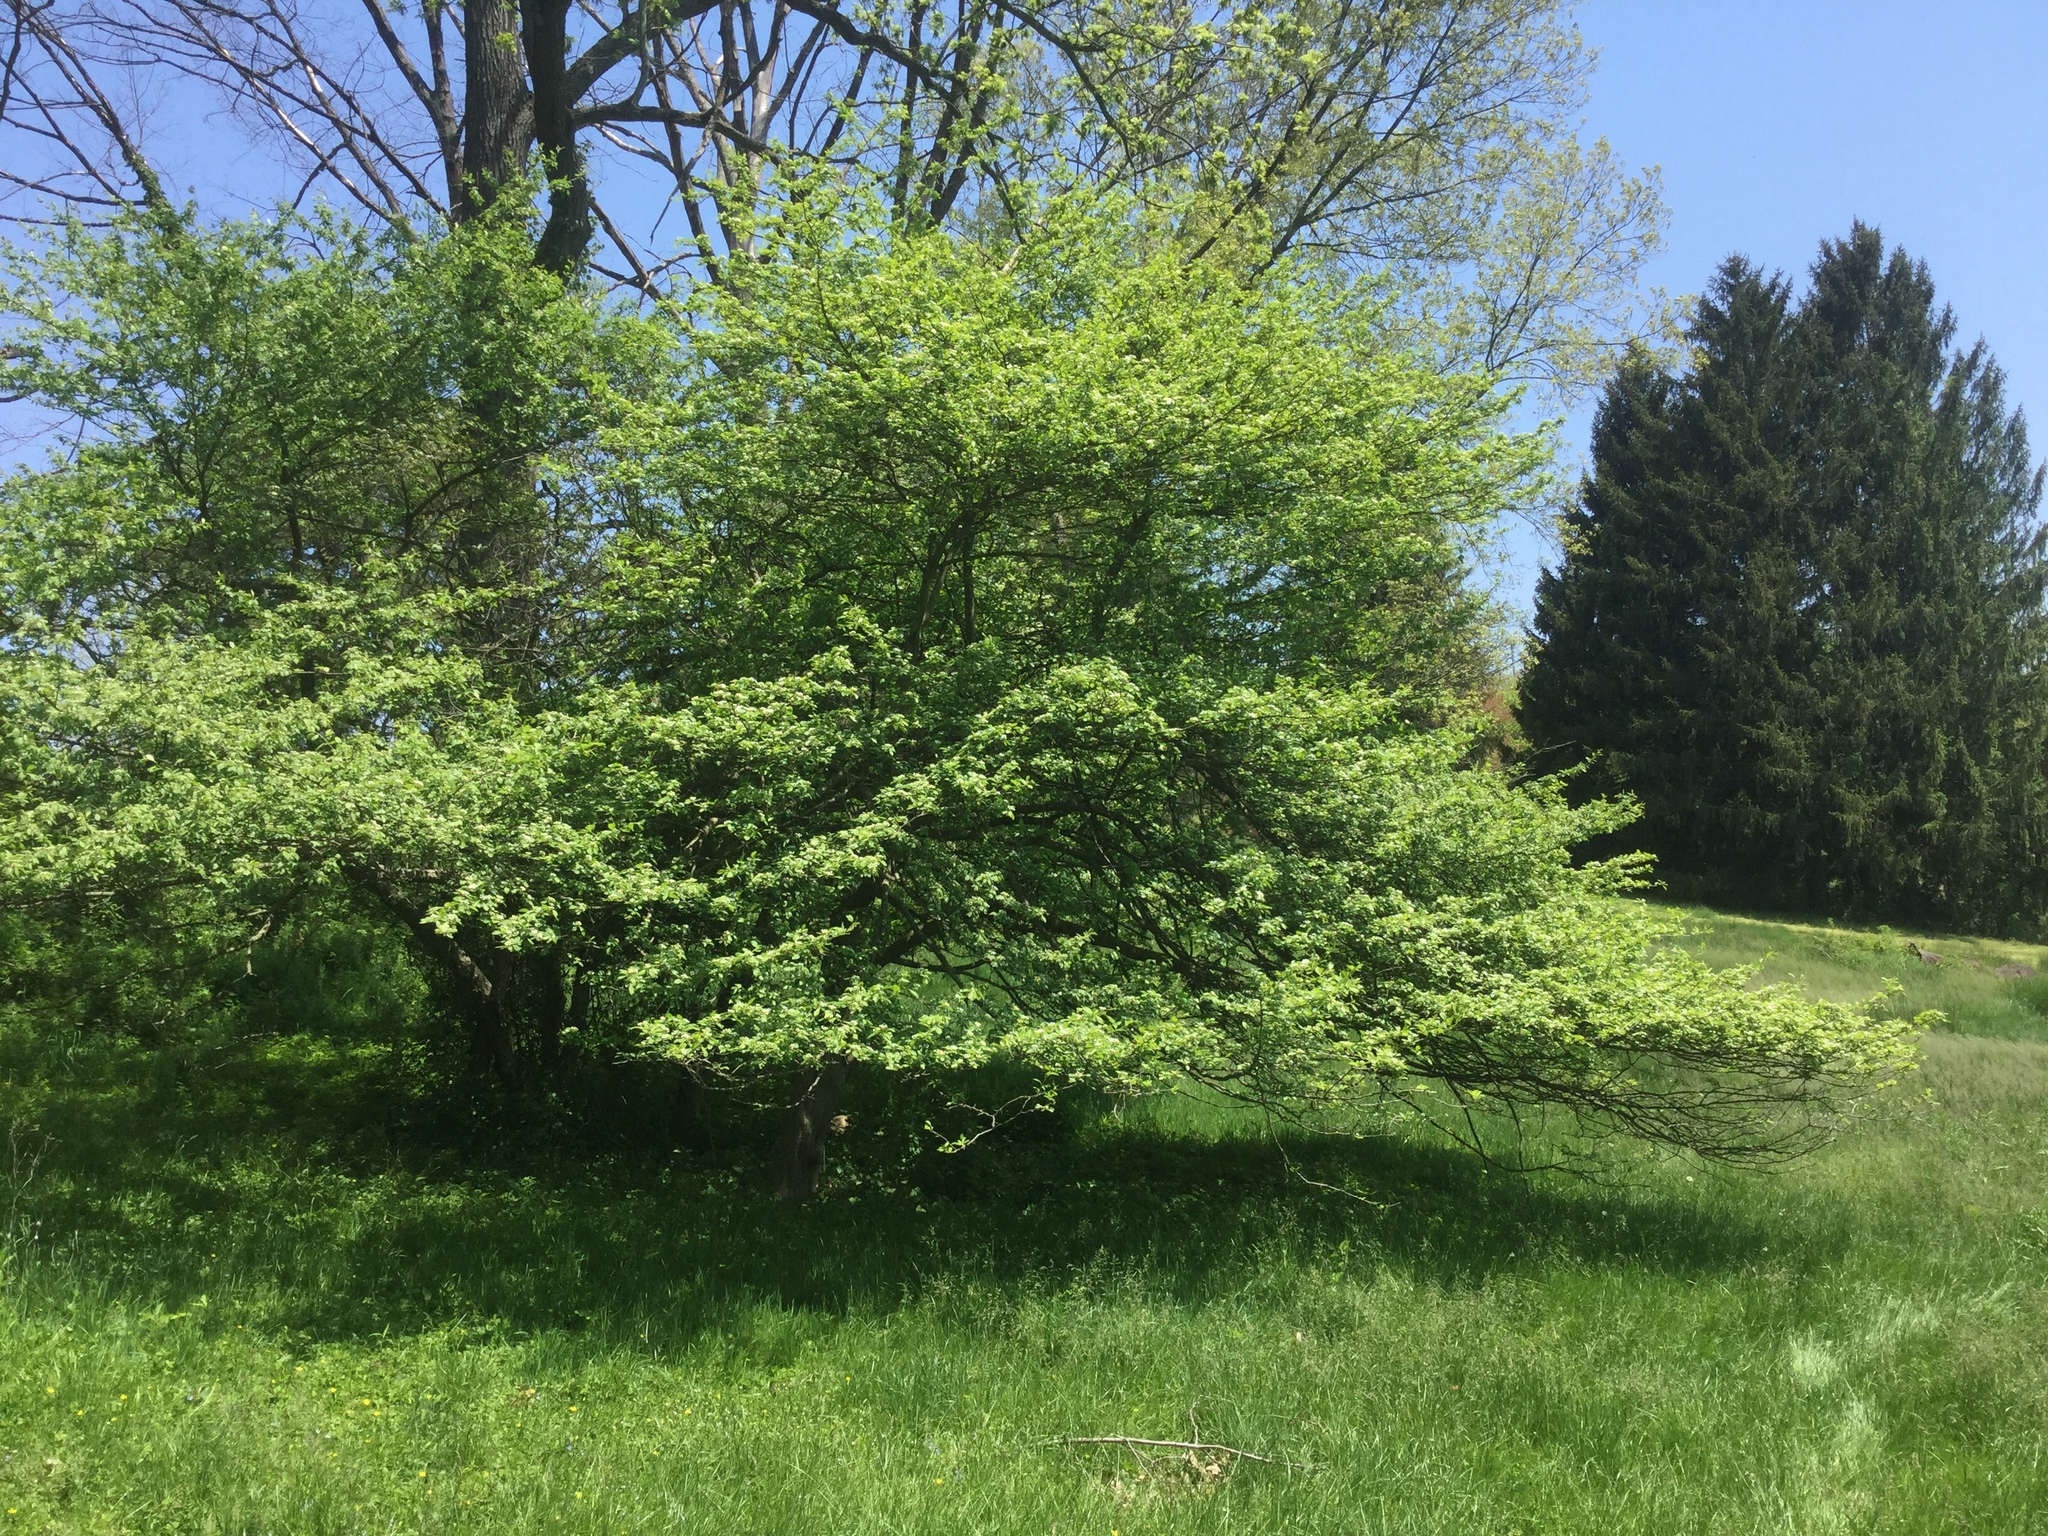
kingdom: Plantae
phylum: Tracheophyta
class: Magnoliopsida
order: Rosales
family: Rosaceae
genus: Crataegus
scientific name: Crataegus punctata
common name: Dotted hawthorn
